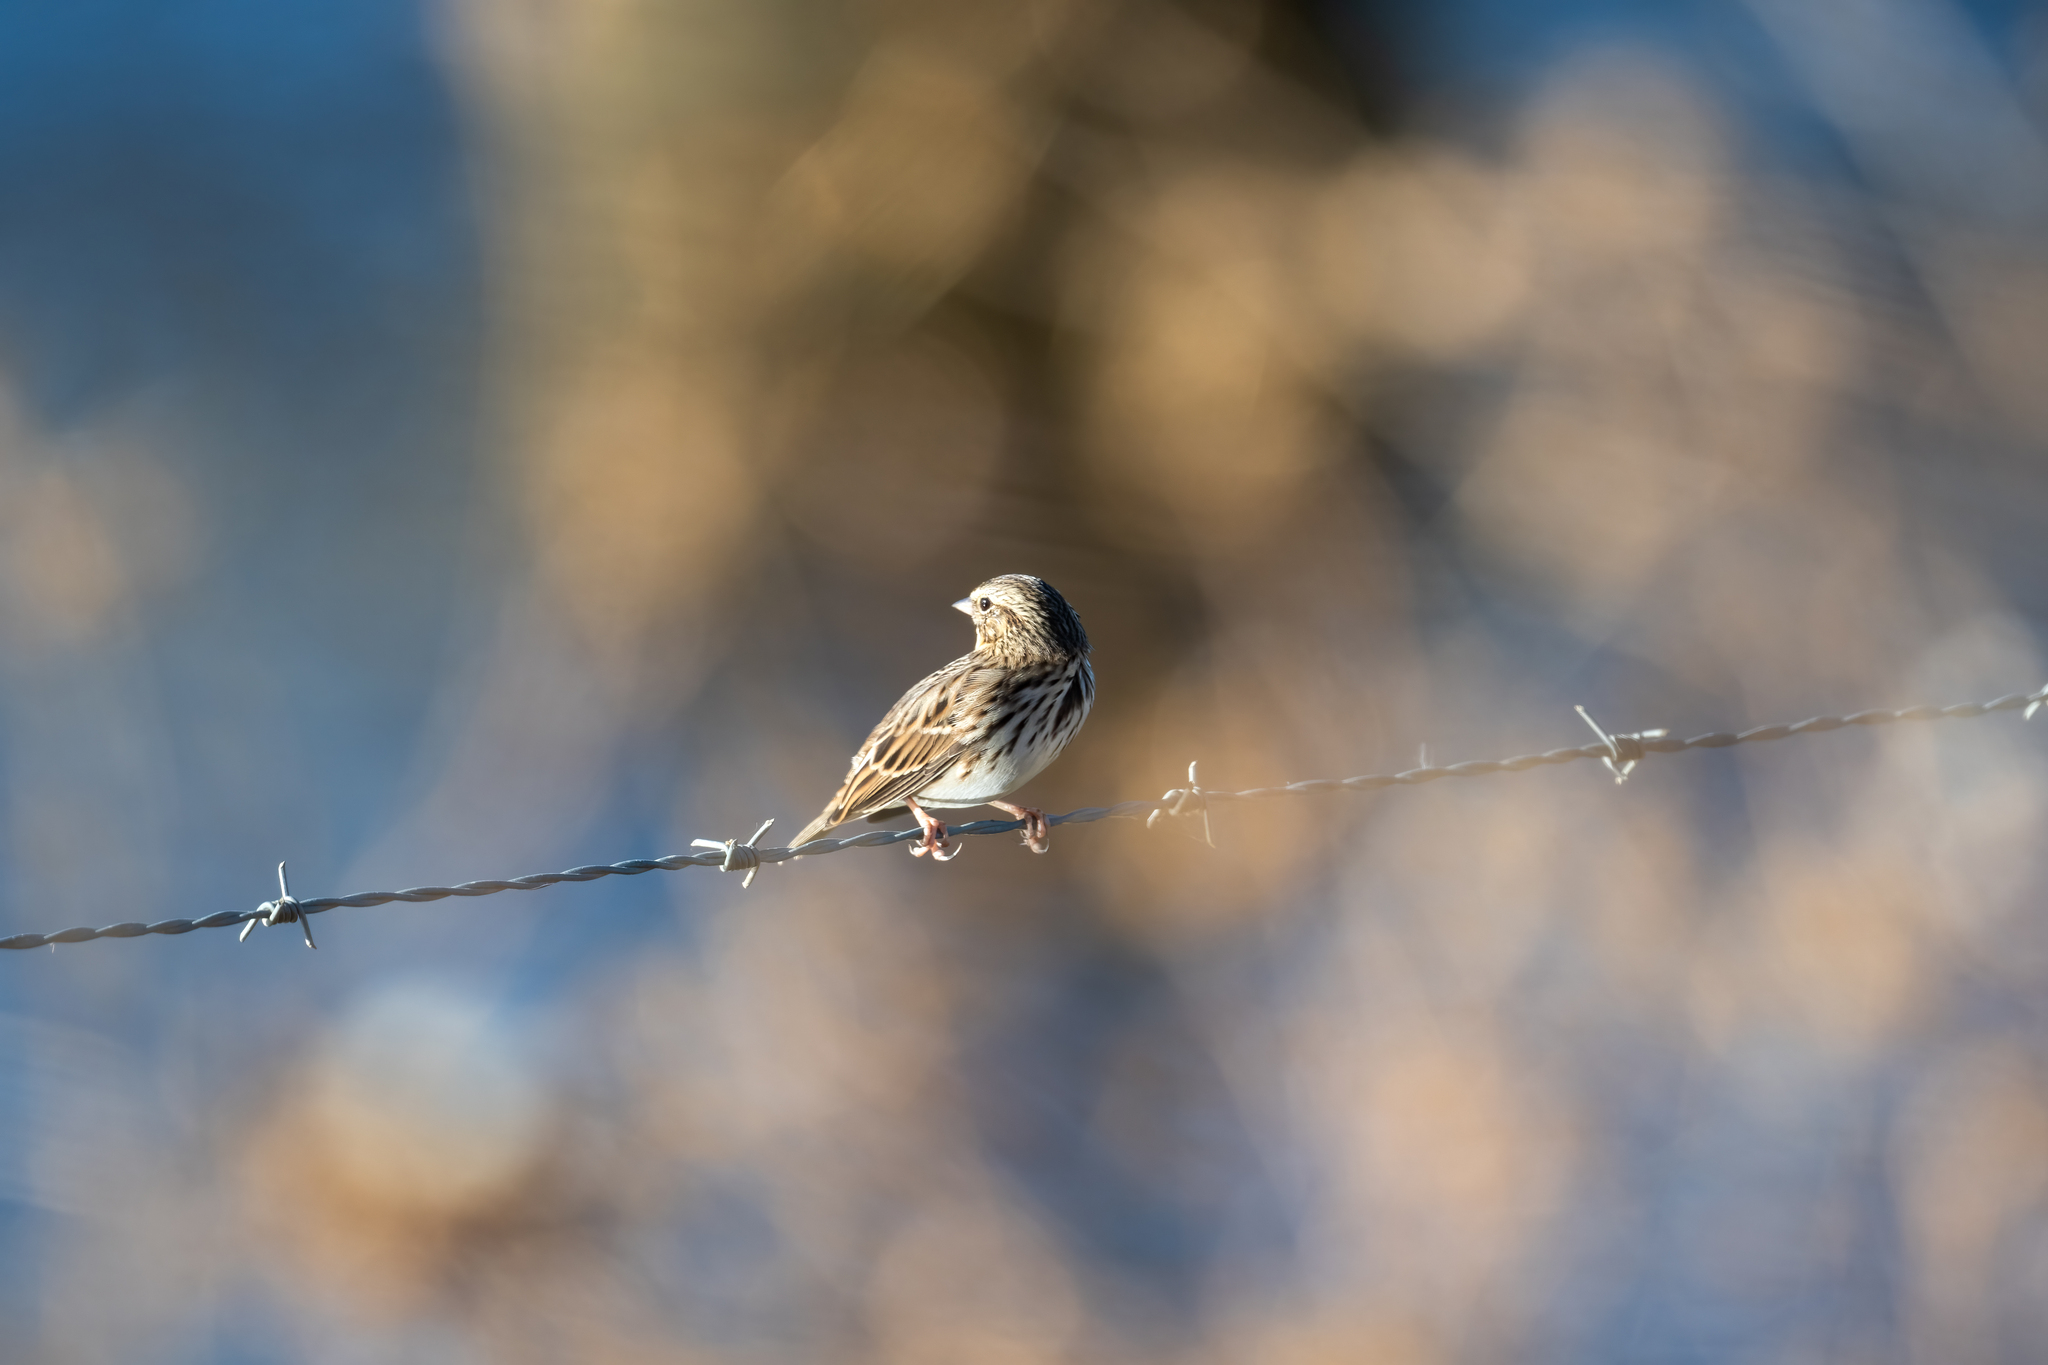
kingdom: Animalia
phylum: Chordata
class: Aves
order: Passeriformes
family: Passerellidae
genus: Passerculus
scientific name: Passerculus sandwichensis
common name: Savannah sparrow
